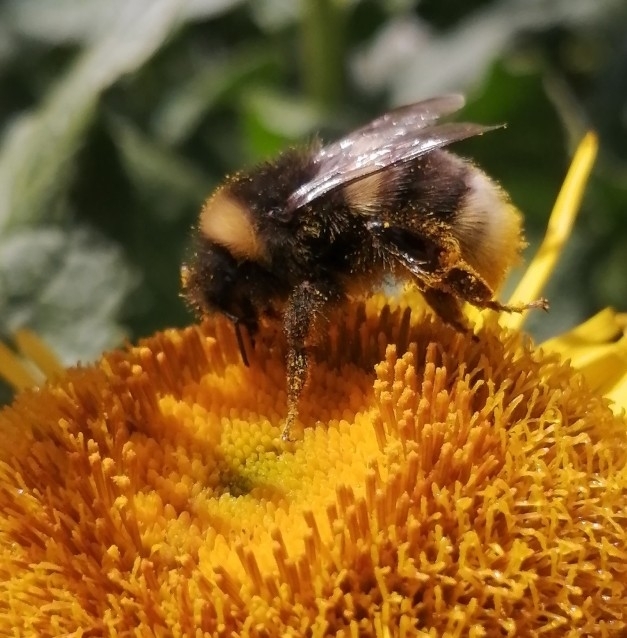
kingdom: Animalia
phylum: Arthropoda
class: Insecta
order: Hymenoptera
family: Apidae
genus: Bombus
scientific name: Bombus
